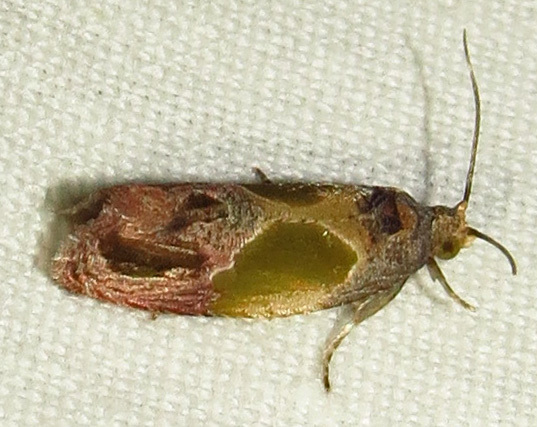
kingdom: Animalia
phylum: Arthropoda
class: Insecta
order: Lepidoptera
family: Tortricidae
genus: Eumarozia
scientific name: Eumarozia malachitana
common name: Sculptured moth
